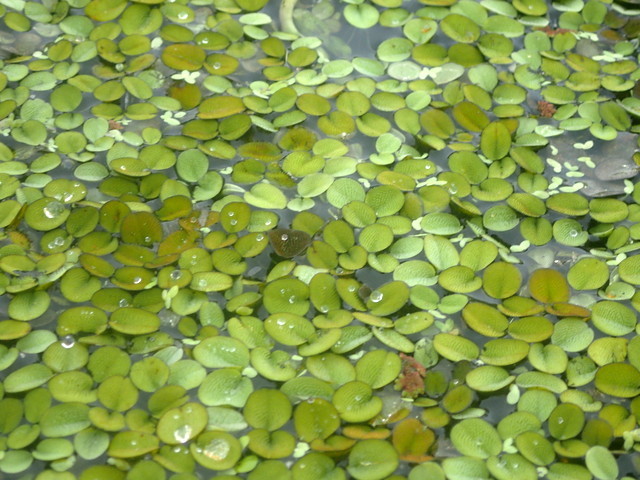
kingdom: Plantae
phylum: Tracheophyta
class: Polypodiopsida
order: Salviniales
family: Salviniaceae
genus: Salvinia
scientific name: Salvinia minima
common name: Water spangles
